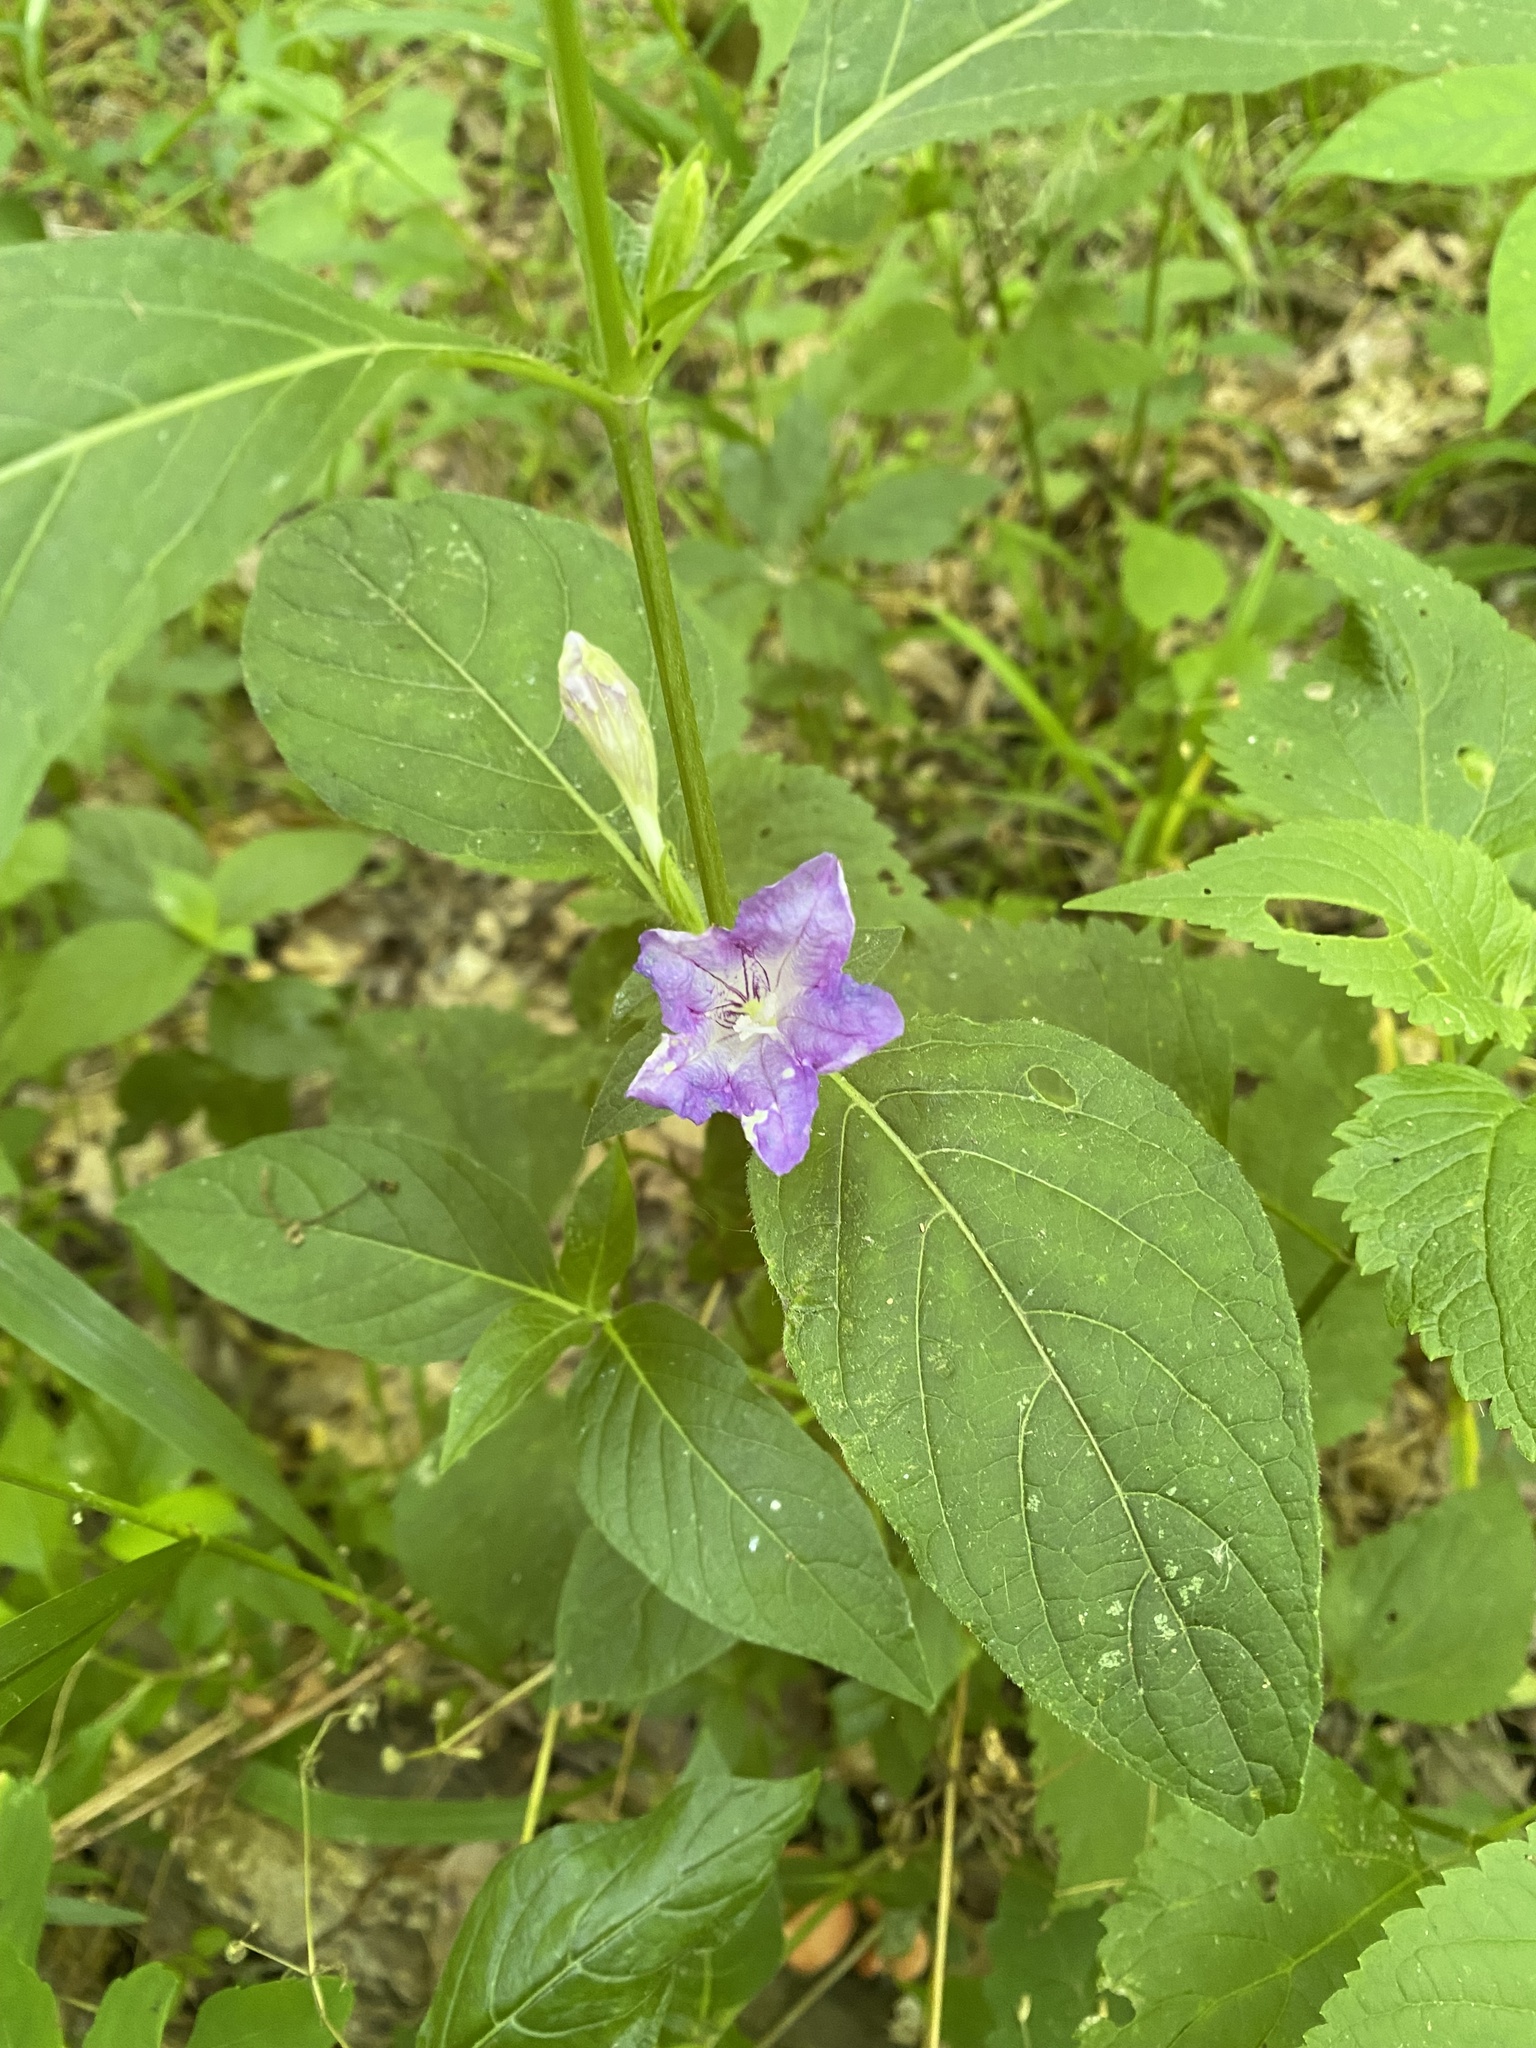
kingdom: Plantae
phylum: Tracheophyta
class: Magnoliopsida
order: Lamiales
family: Acanthaceae
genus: Ruellia
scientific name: Ruellia strepens
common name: Limestone wild petunia
